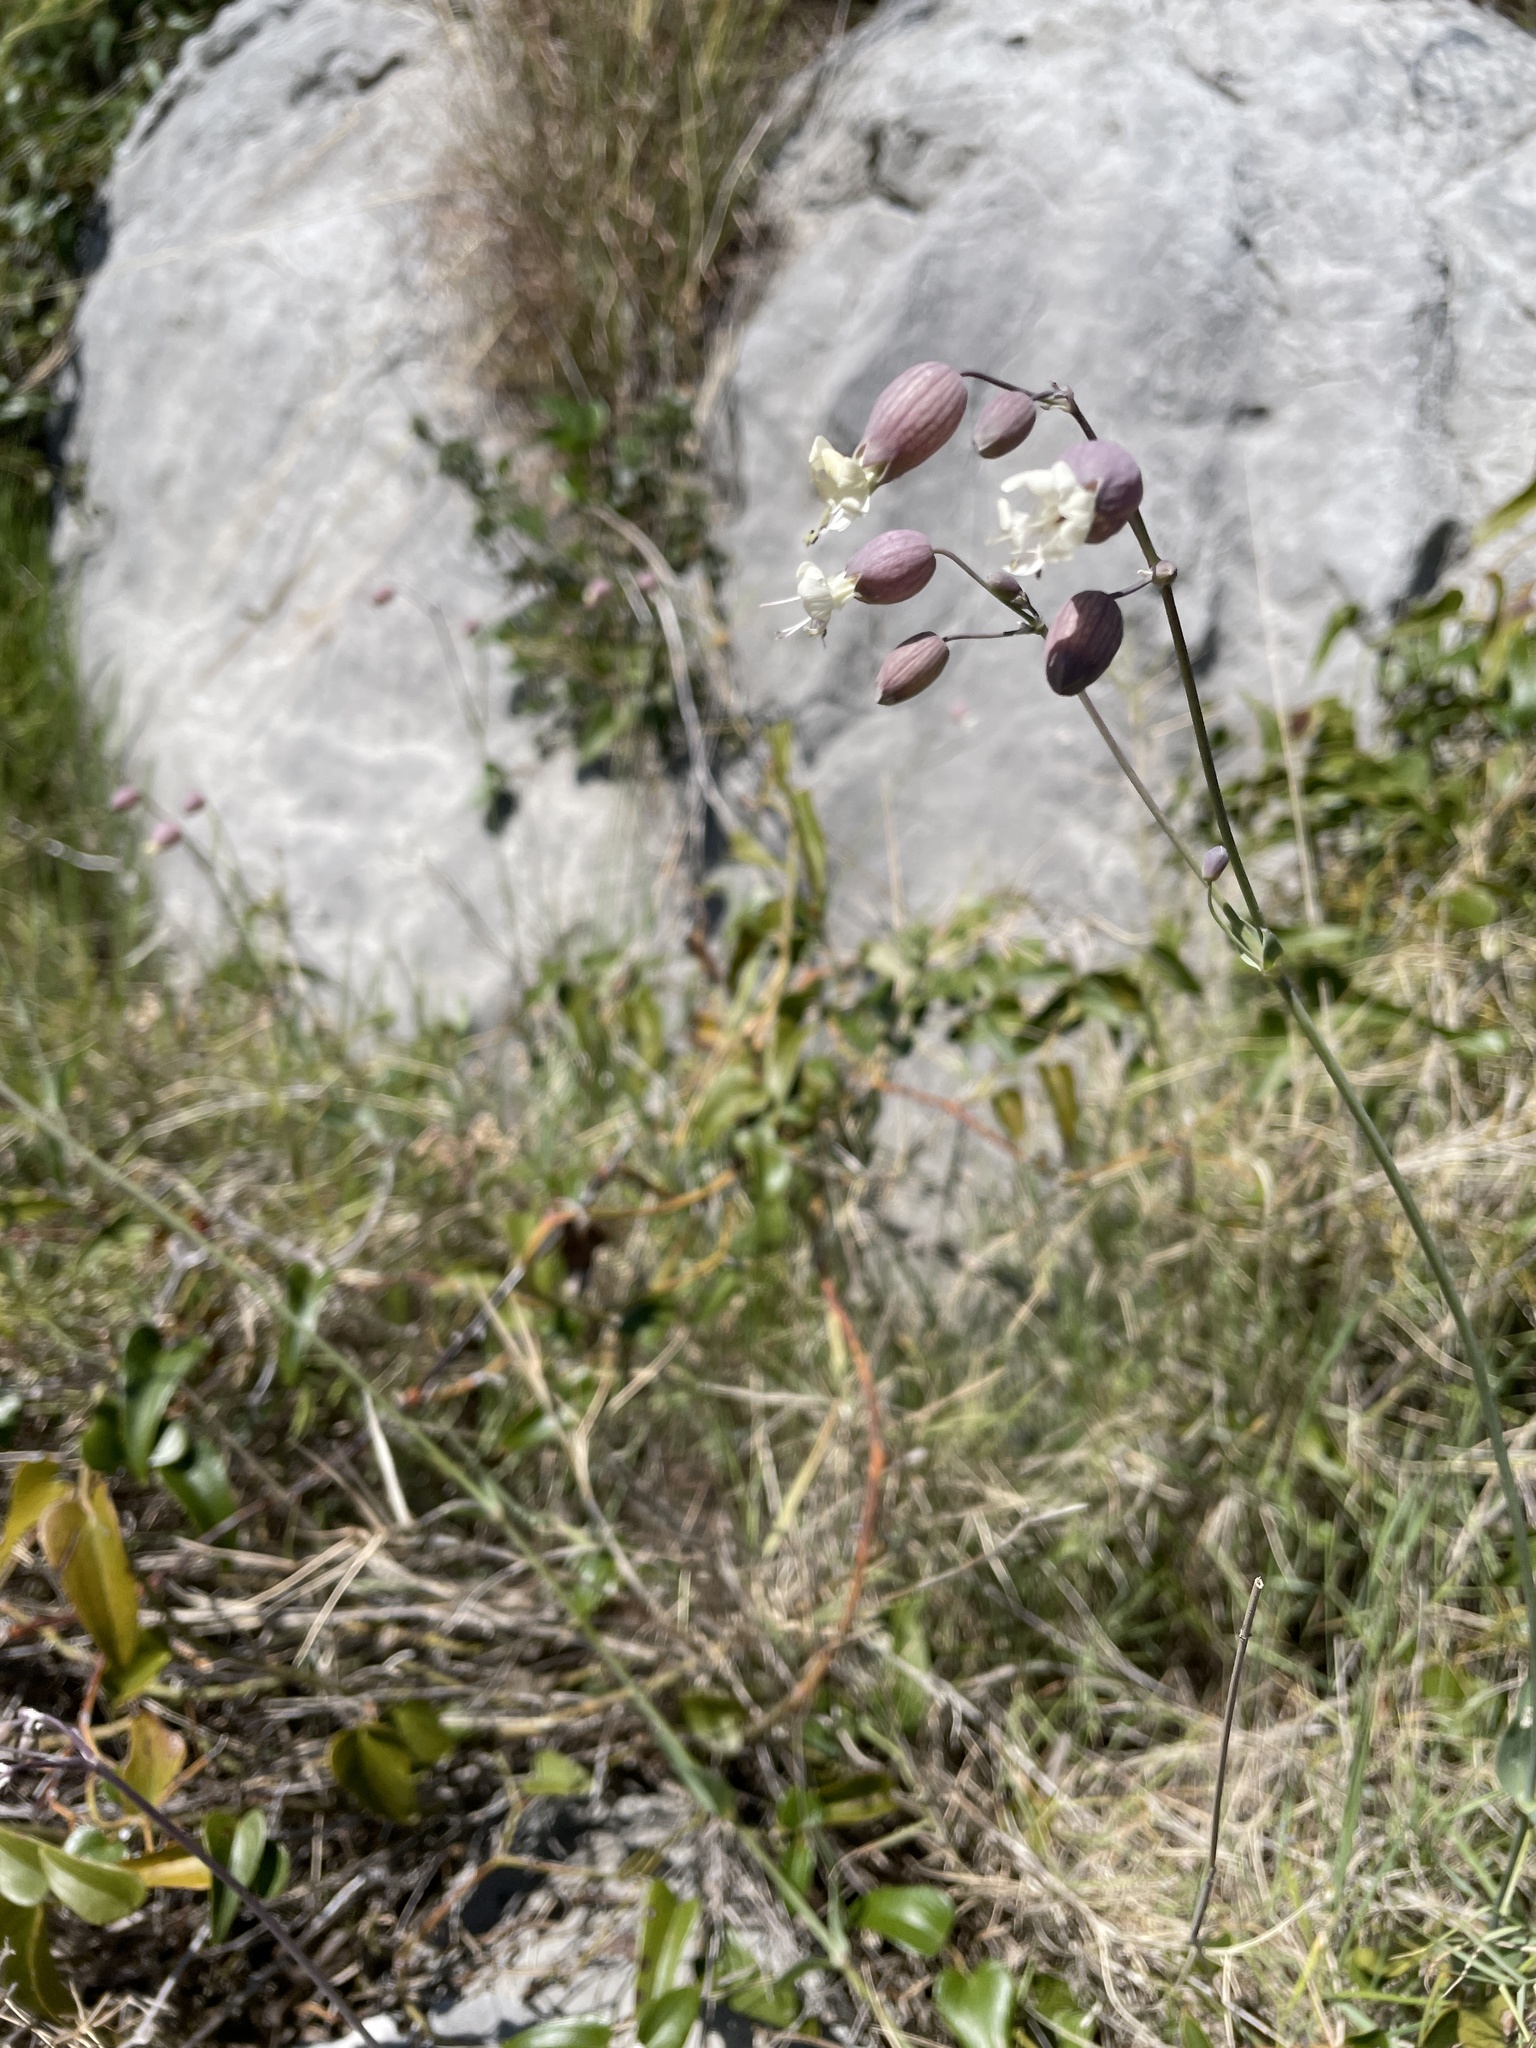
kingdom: Plantae
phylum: Tracheophyta
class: Magnoliopsida
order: Caryophyllales
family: Caryophyllaceae
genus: Silene
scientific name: Silene vulgaris
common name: Bladder campion
